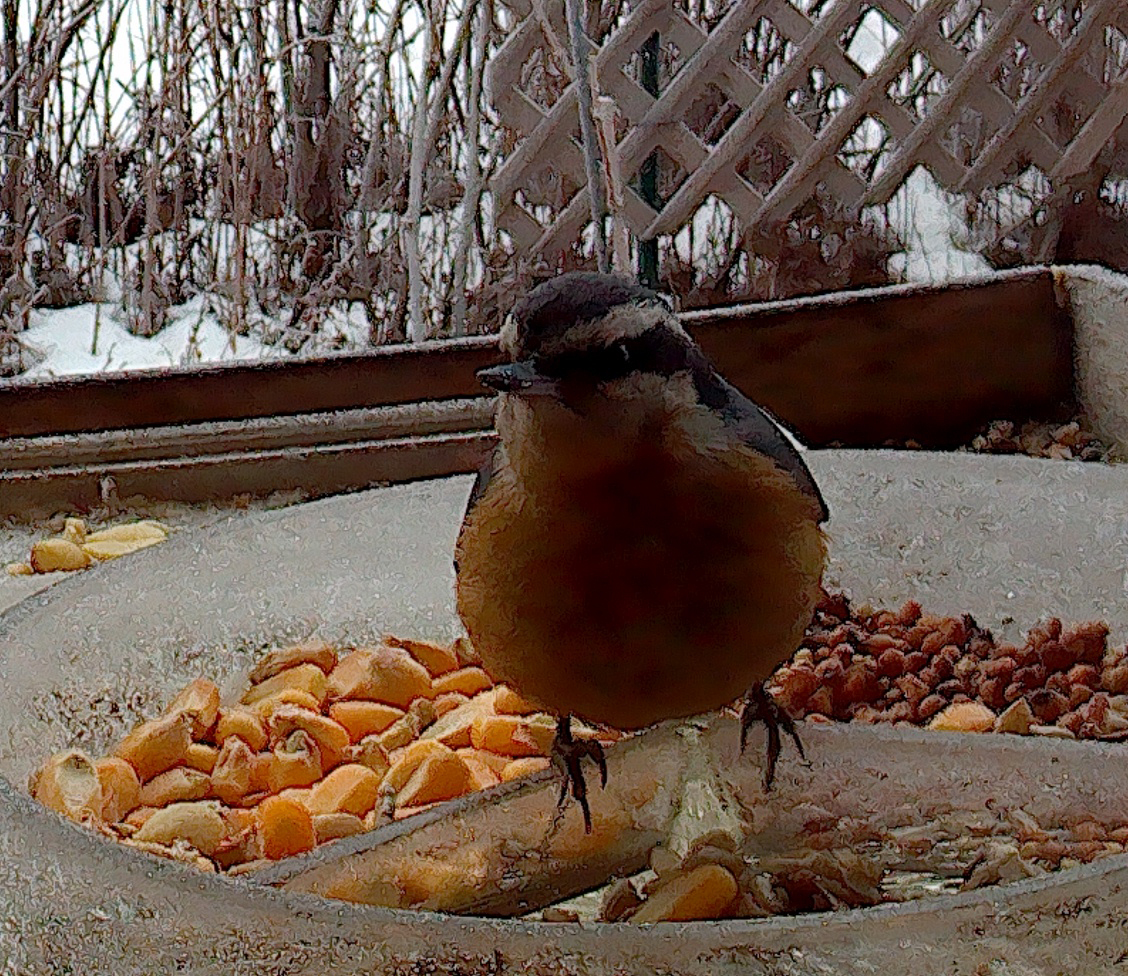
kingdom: Animalia
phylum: Chordata
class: Aves
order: Passeriformes
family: Sittidae
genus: Sitta
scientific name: Sitta canadensis
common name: Red-breasted nuthatch
